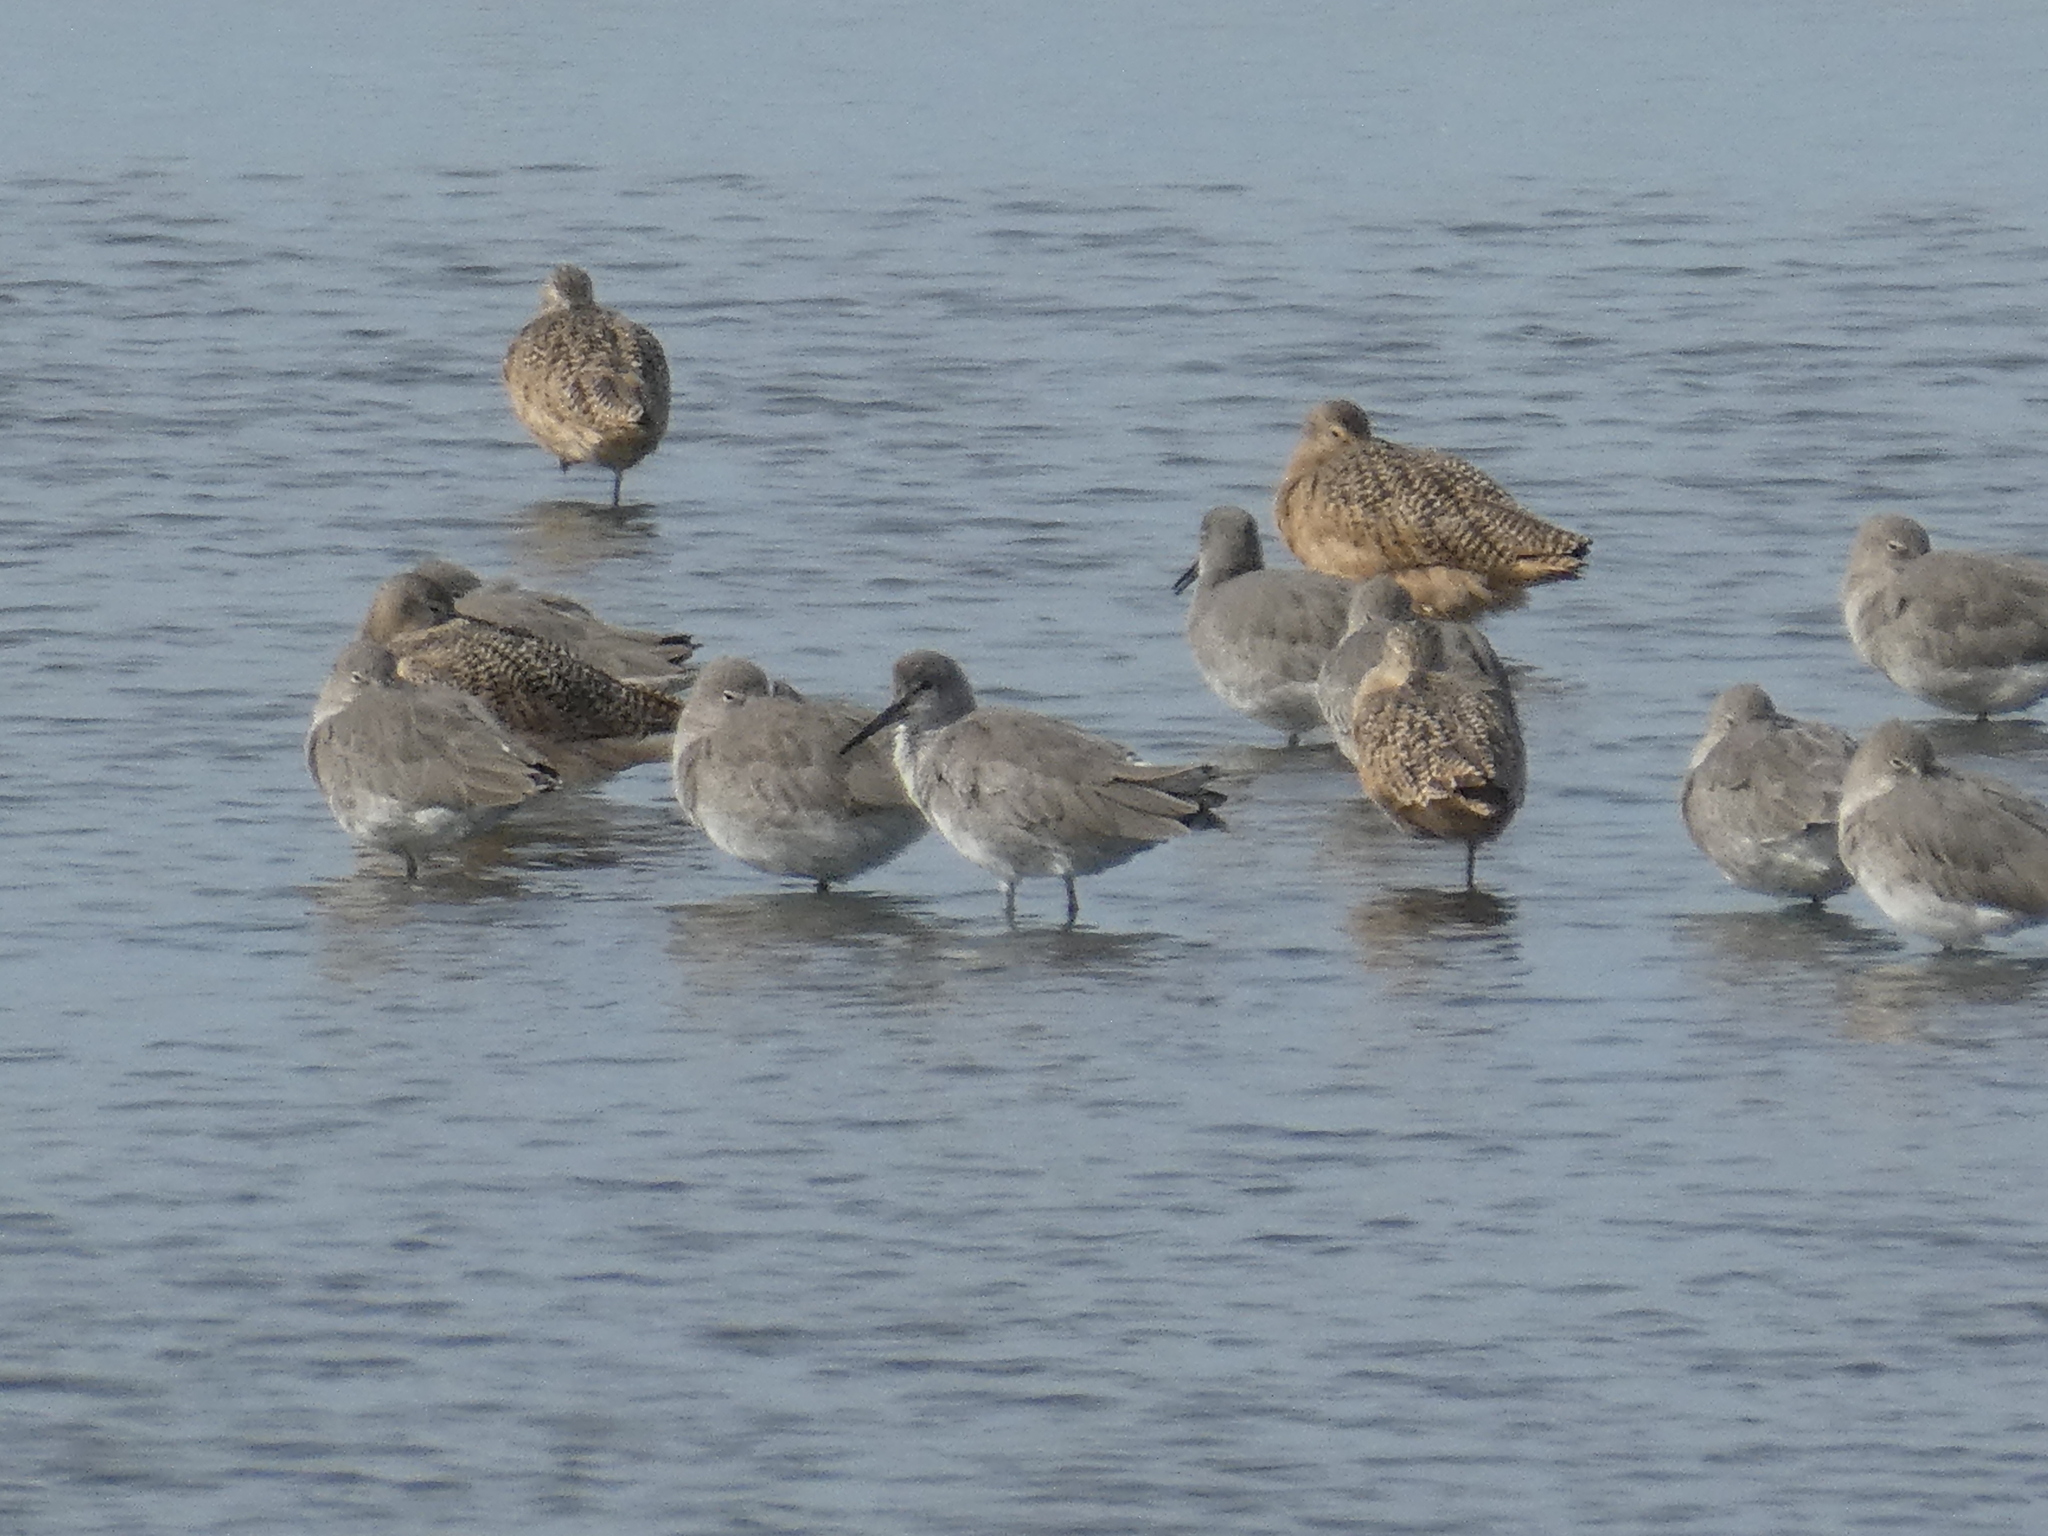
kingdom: Animalia
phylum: Chordata
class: Aves
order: Charadriiformes
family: Scolopacidae
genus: Tringa
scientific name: Tringa semipalmata
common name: Willet
